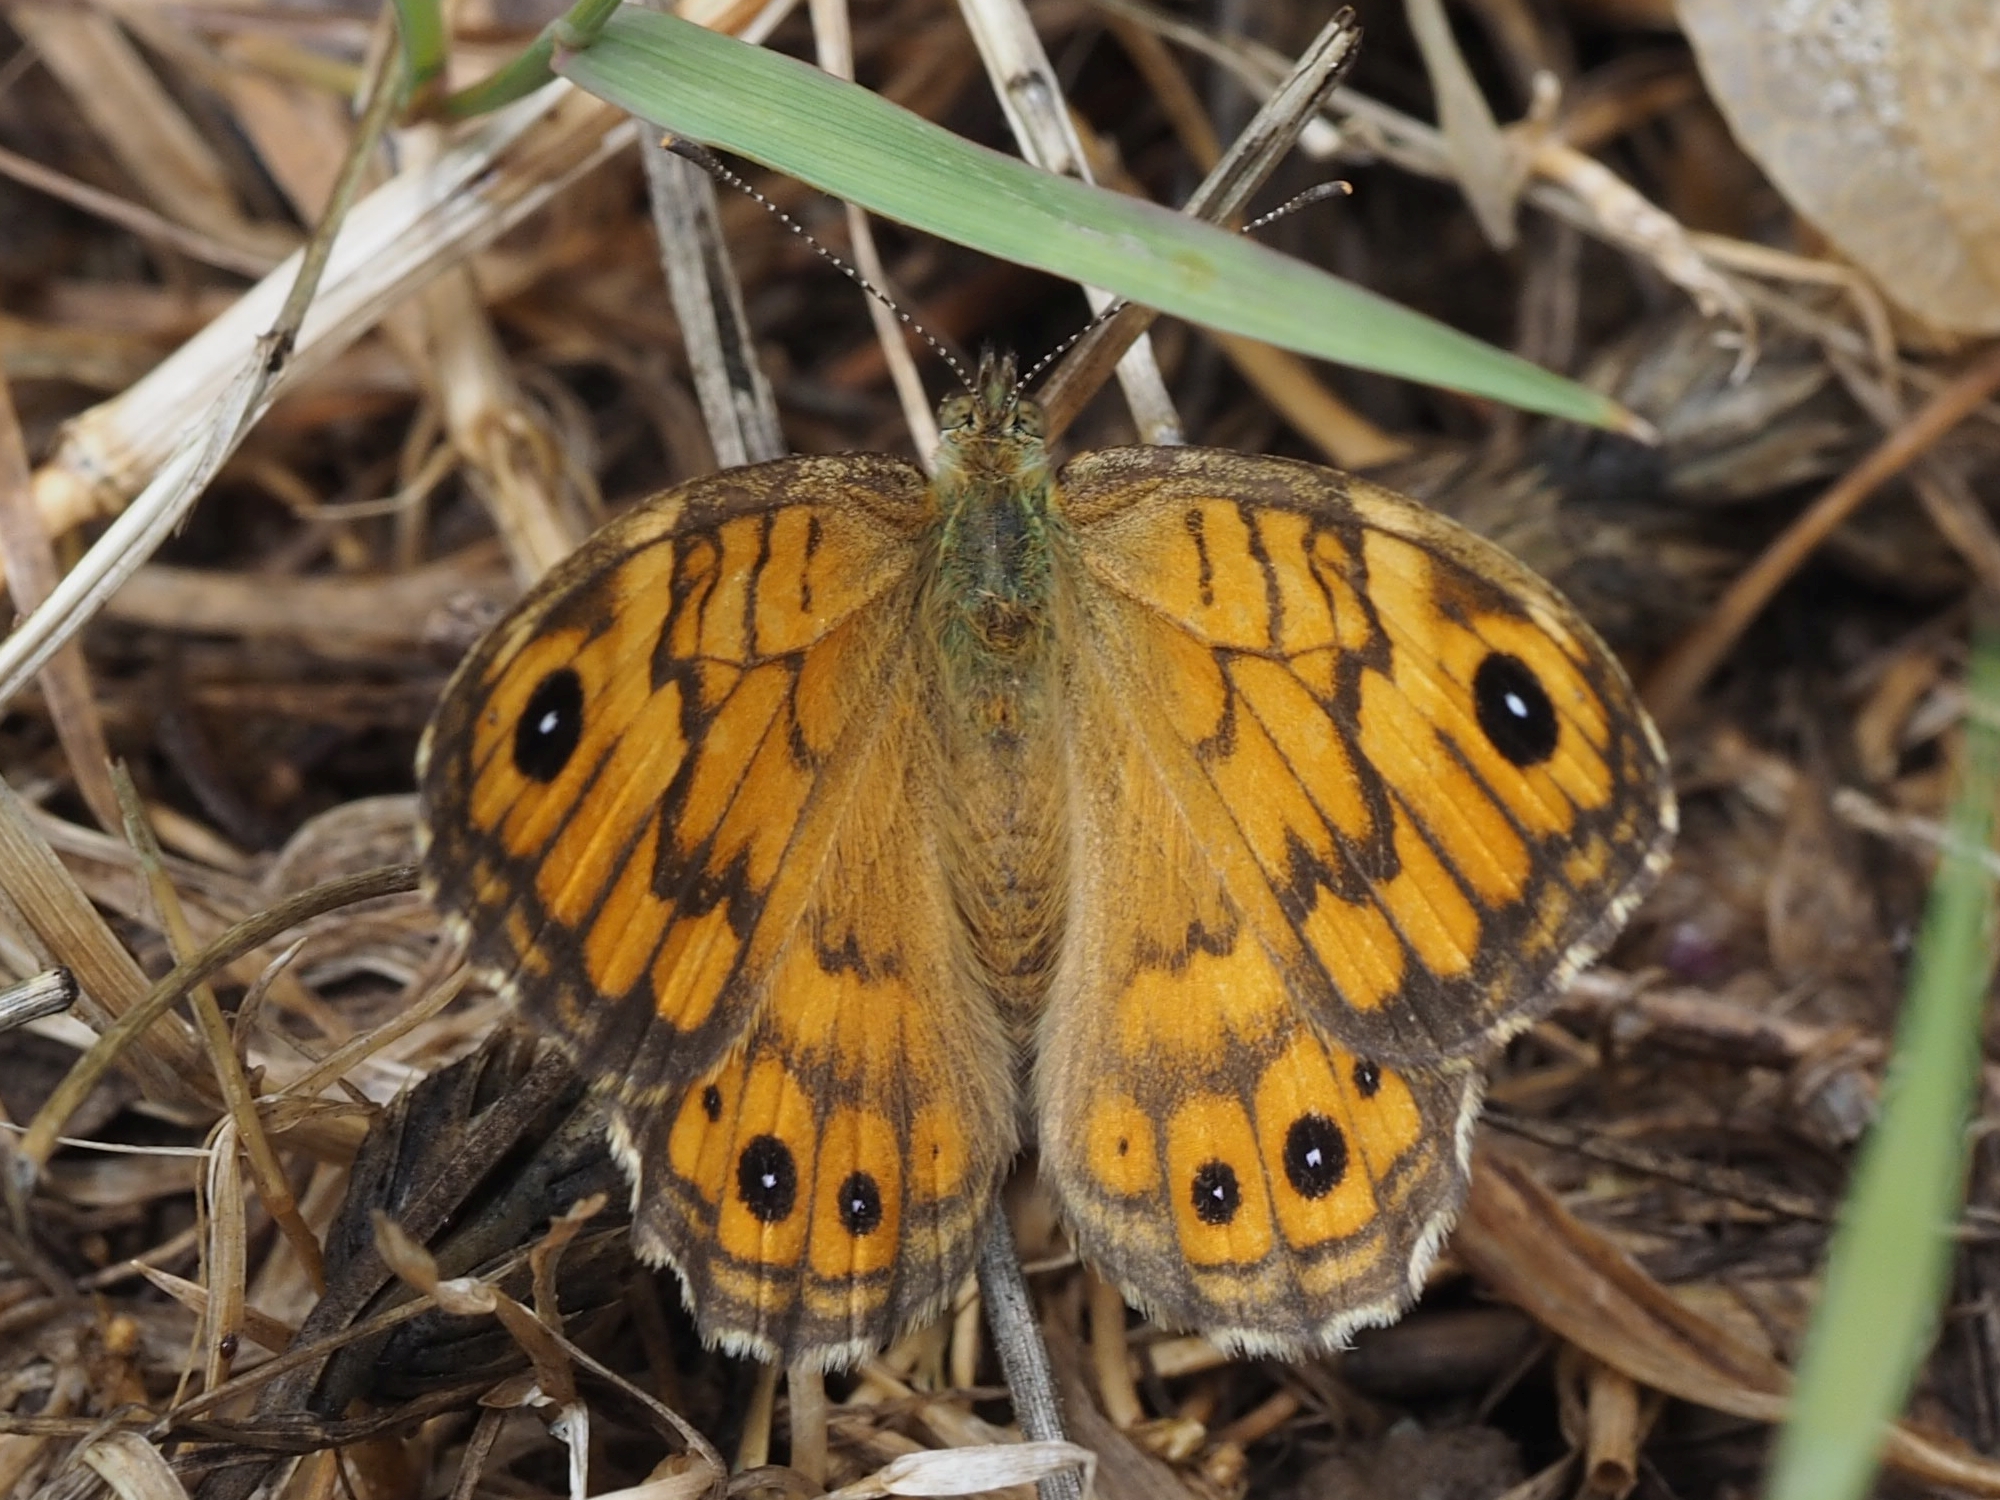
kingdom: Animalia
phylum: Arthropoda
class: Insecta
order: Lepidoptera
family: Nymphalidae
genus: Pararge
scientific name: Pararge Lasiommata megera
